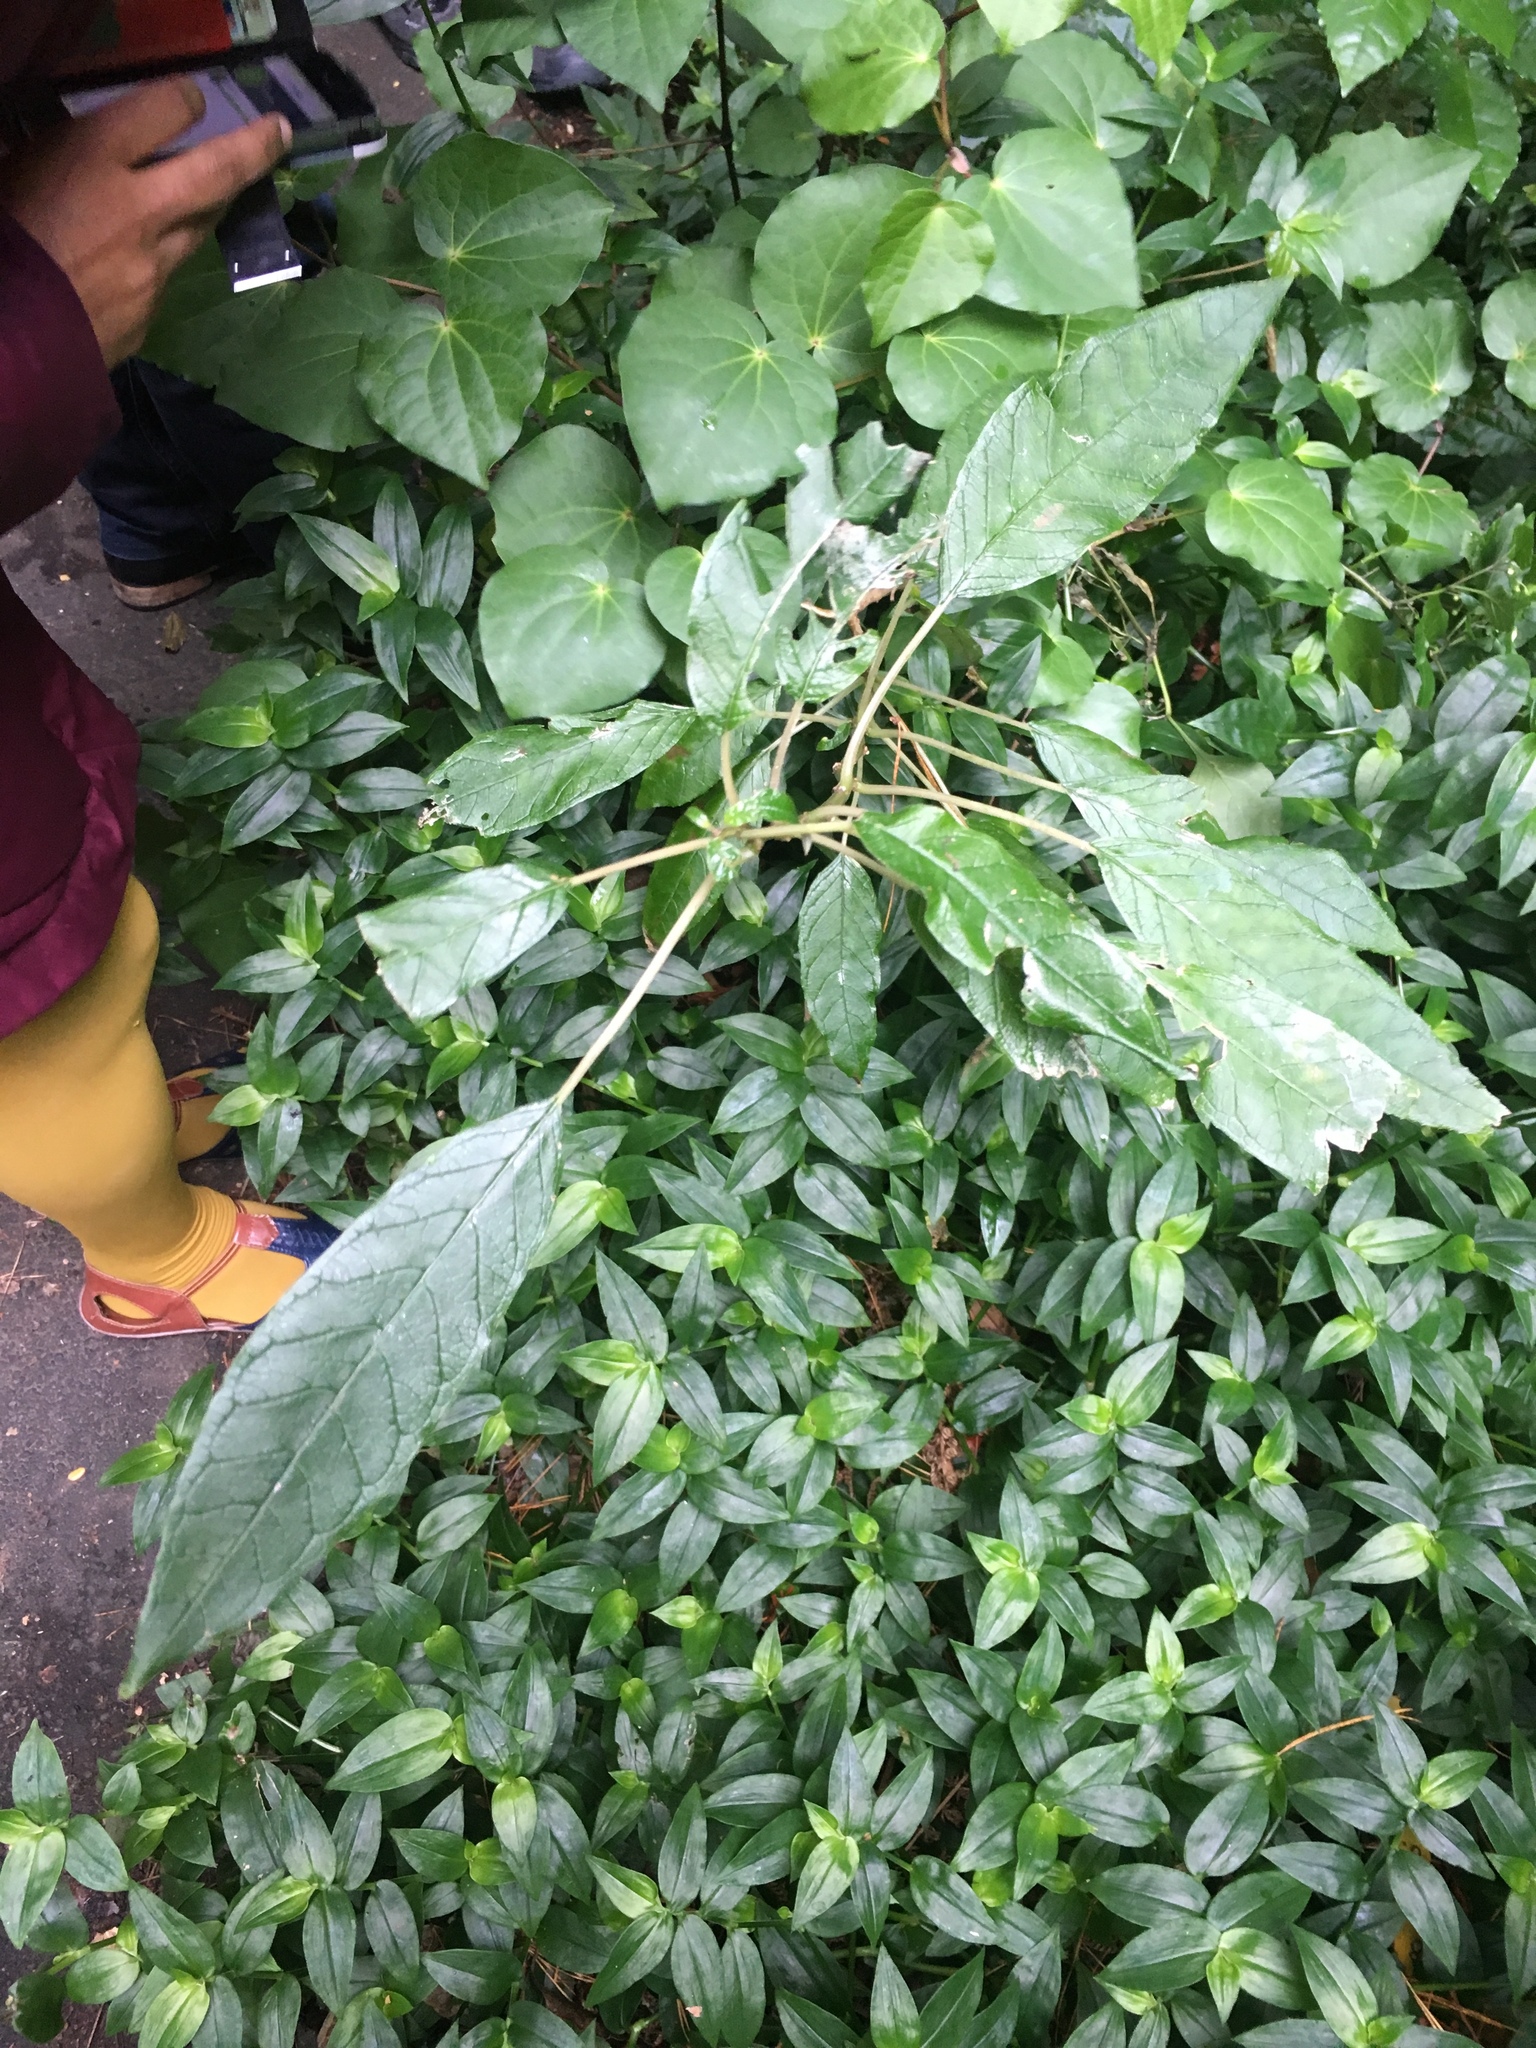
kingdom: Plantae
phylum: Tracheophyta
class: Magnoliopsida
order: Myrtales
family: Onagraceae
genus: Fuchsia
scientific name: Fuchsia excorticata
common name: Tree fuchsia
